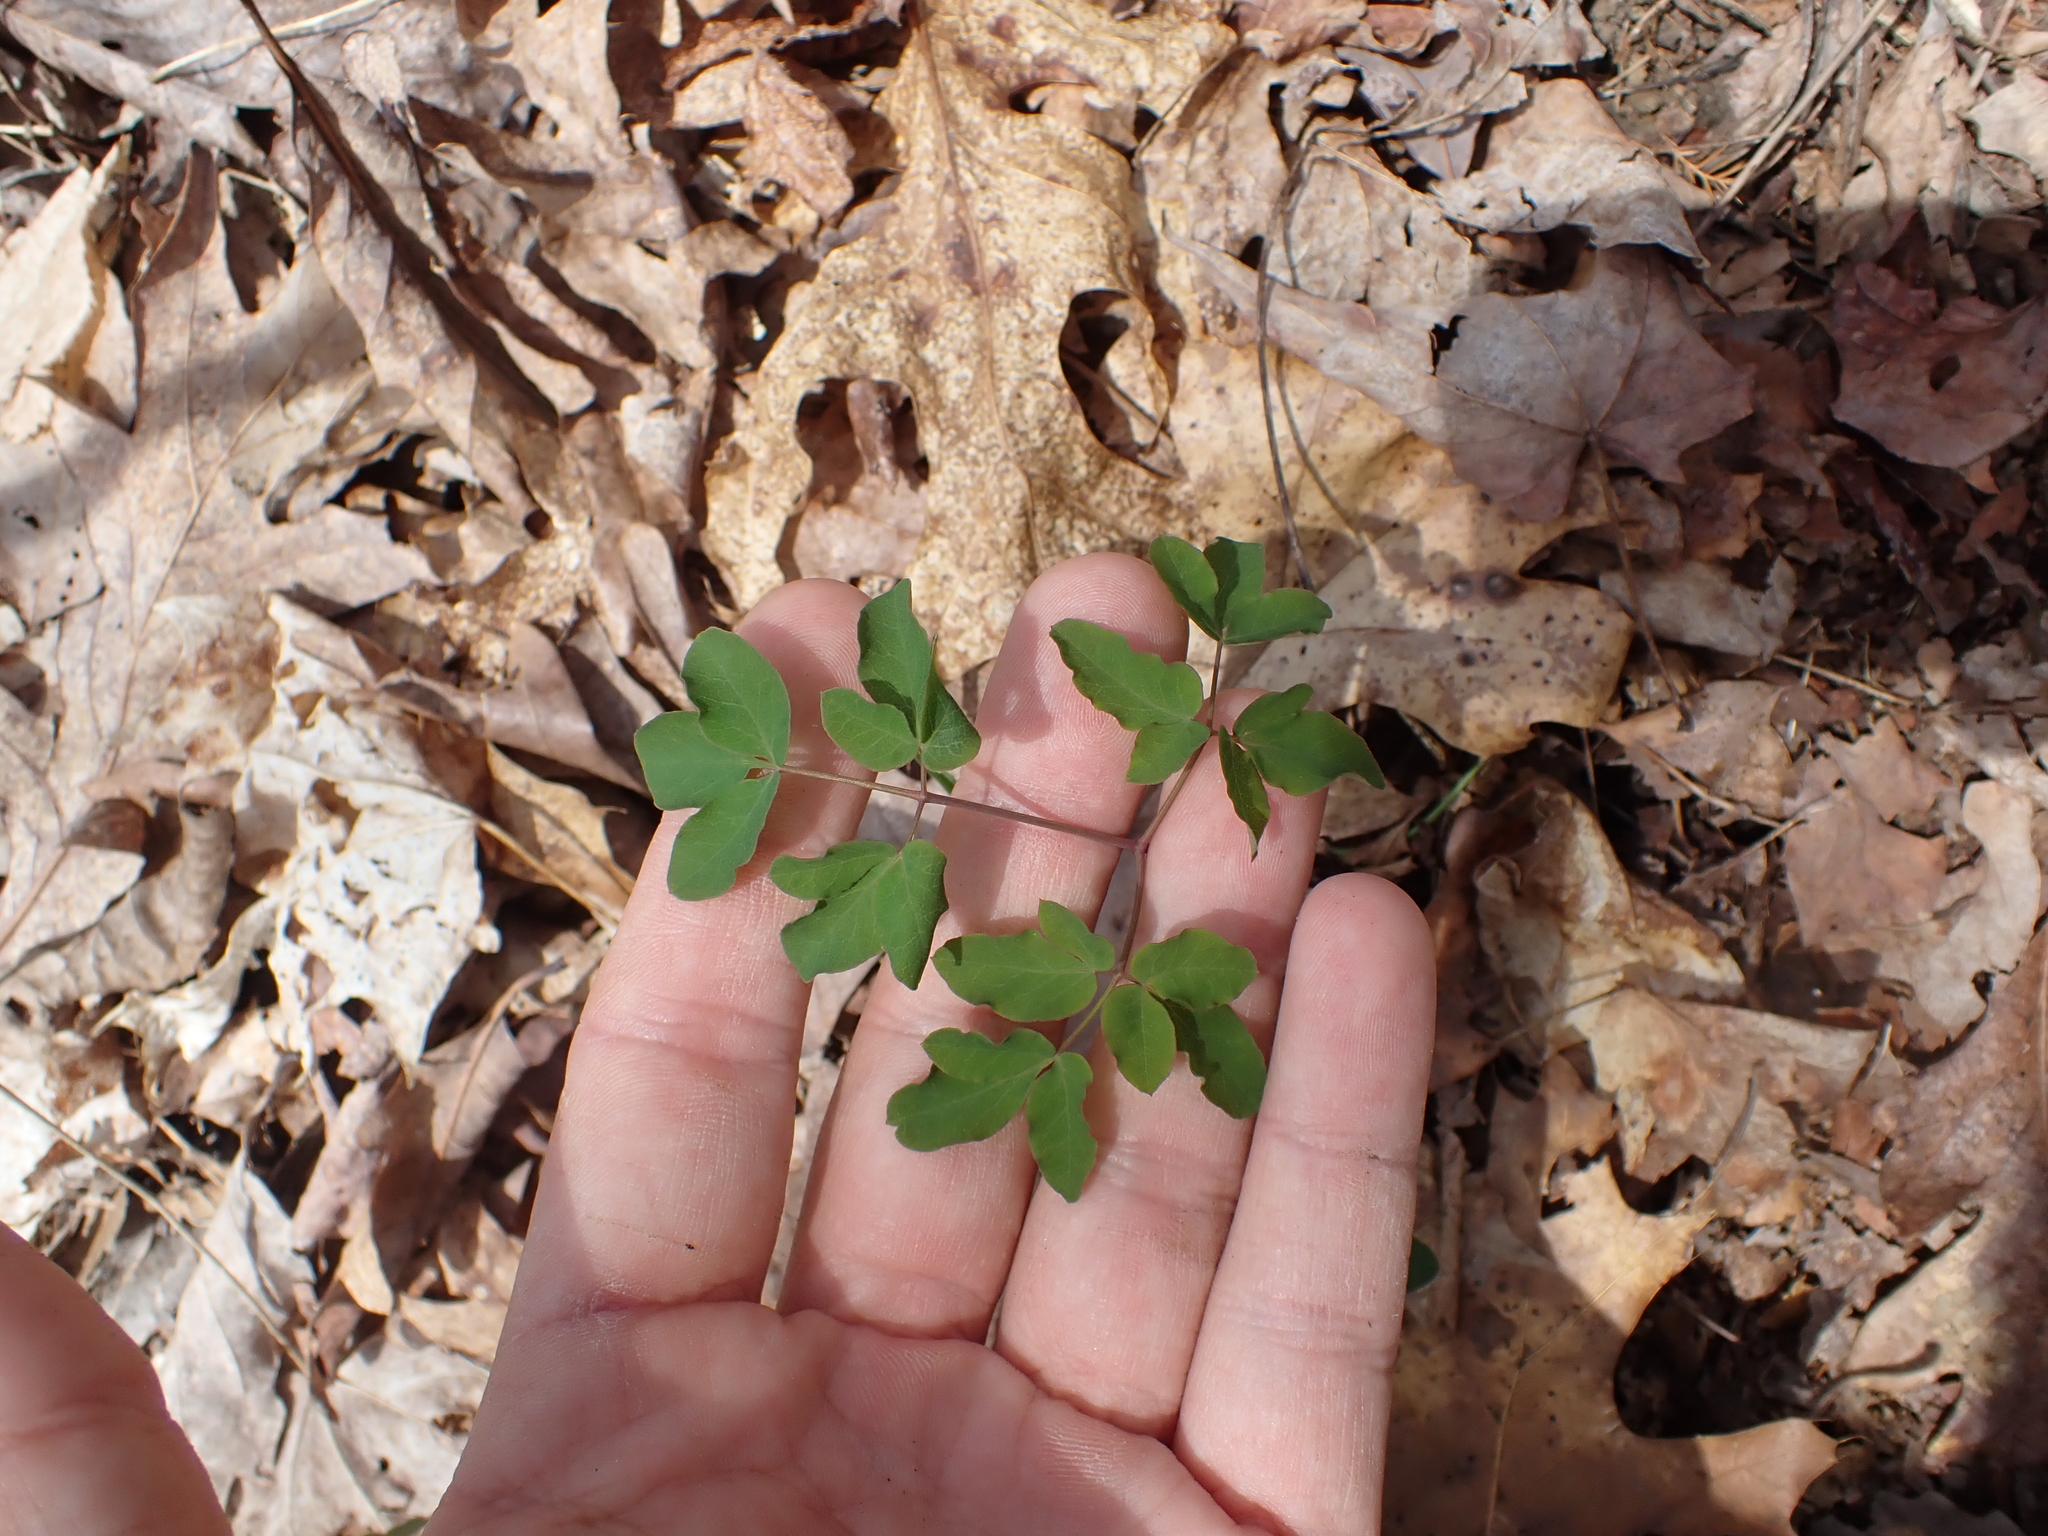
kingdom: Plantae
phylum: Tracheophyta
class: Magnoliopsida
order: Apiales
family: Apiaceae
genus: Taenidia
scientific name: Taenidia integerrima
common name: Golden alexander
